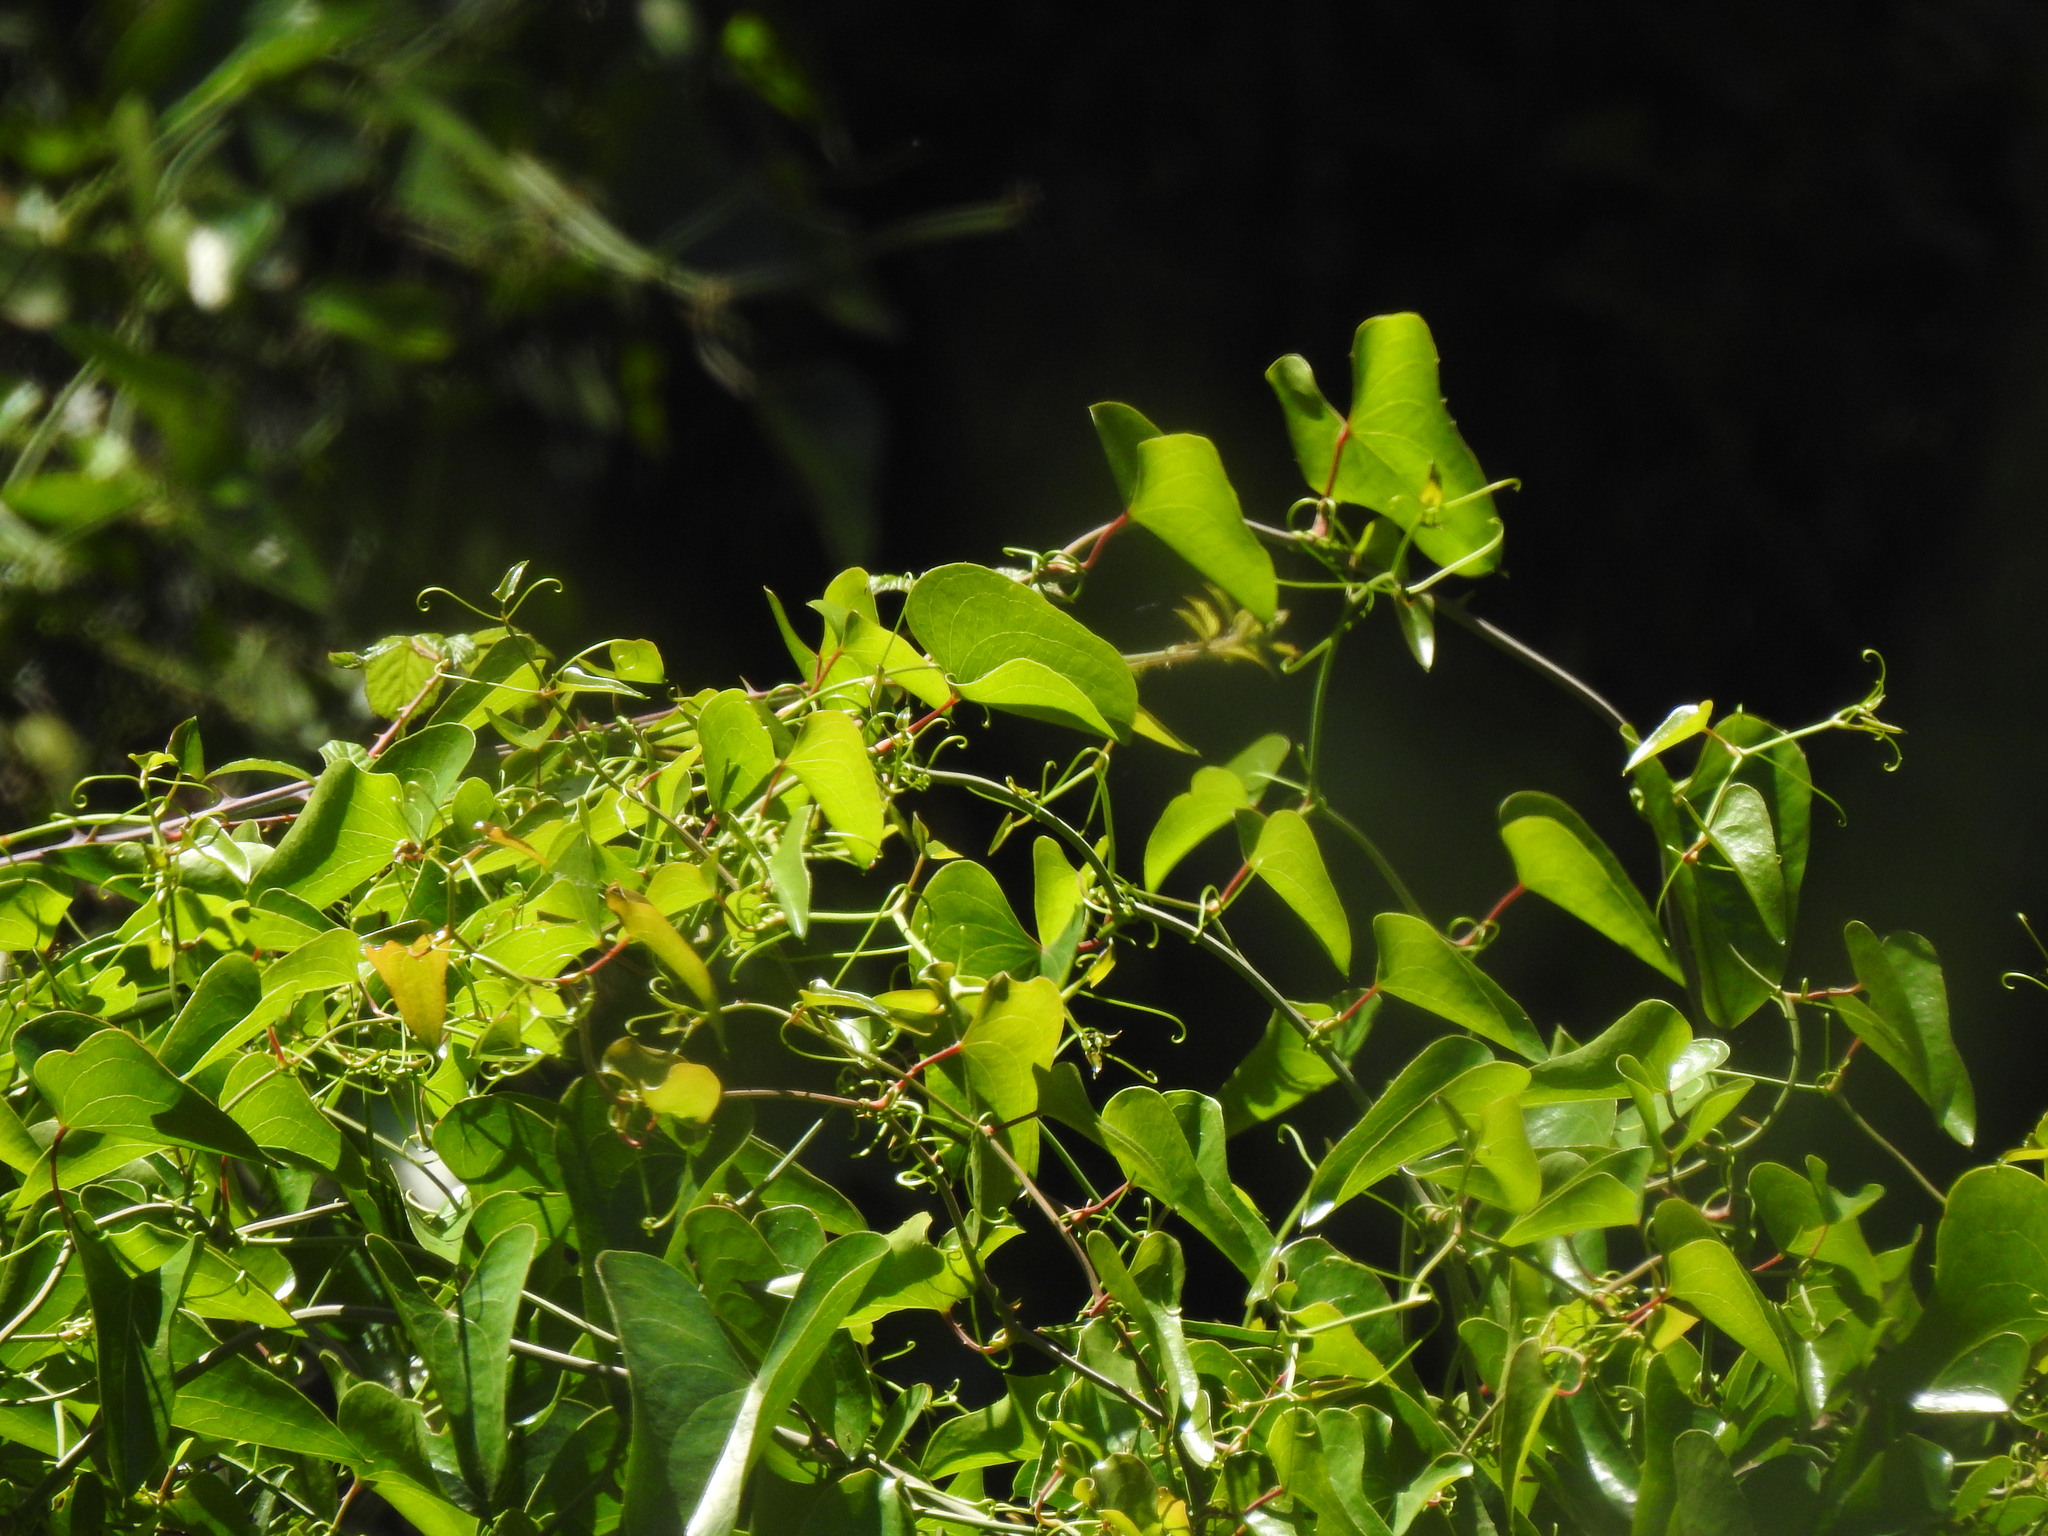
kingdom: Plantae
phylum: Tracheophyta
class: Liliopsida
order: Liliales
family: Smilacaceae
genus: Smilax
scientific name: Smilax aspera
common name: Common smilax
